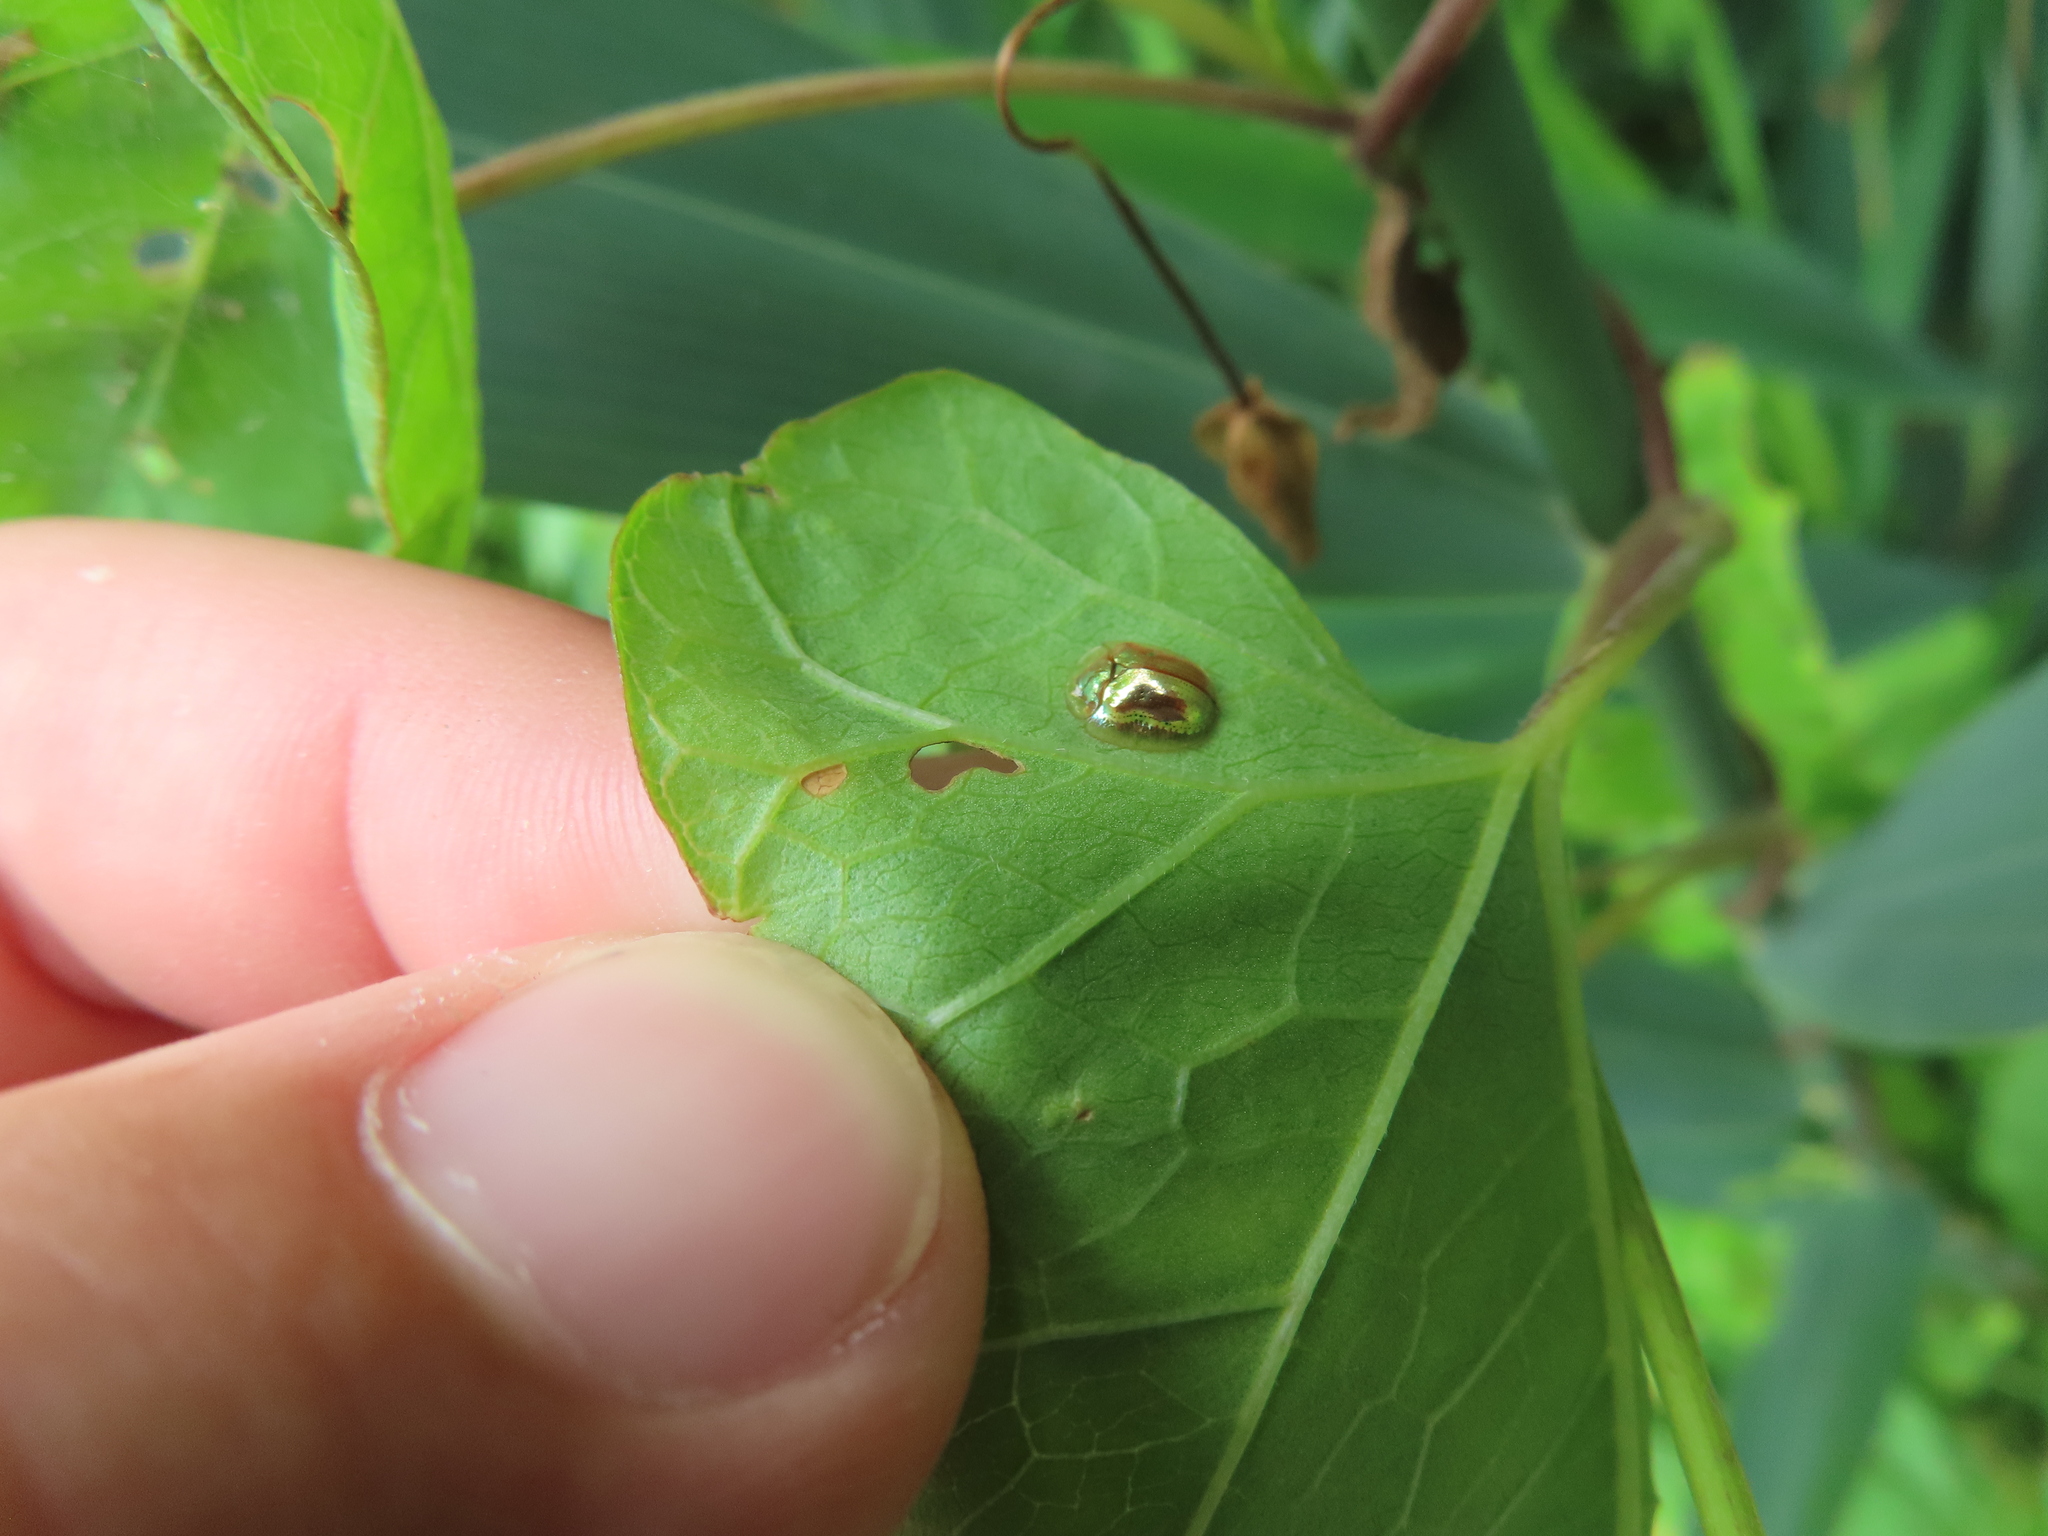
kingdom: Animalia
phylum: Arthropoda
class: Insecta
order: Coleoptera
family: Chrysomelidae
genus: Charidotella
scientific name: Charidotella sexpunctata
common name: Golden tortoise beetle
